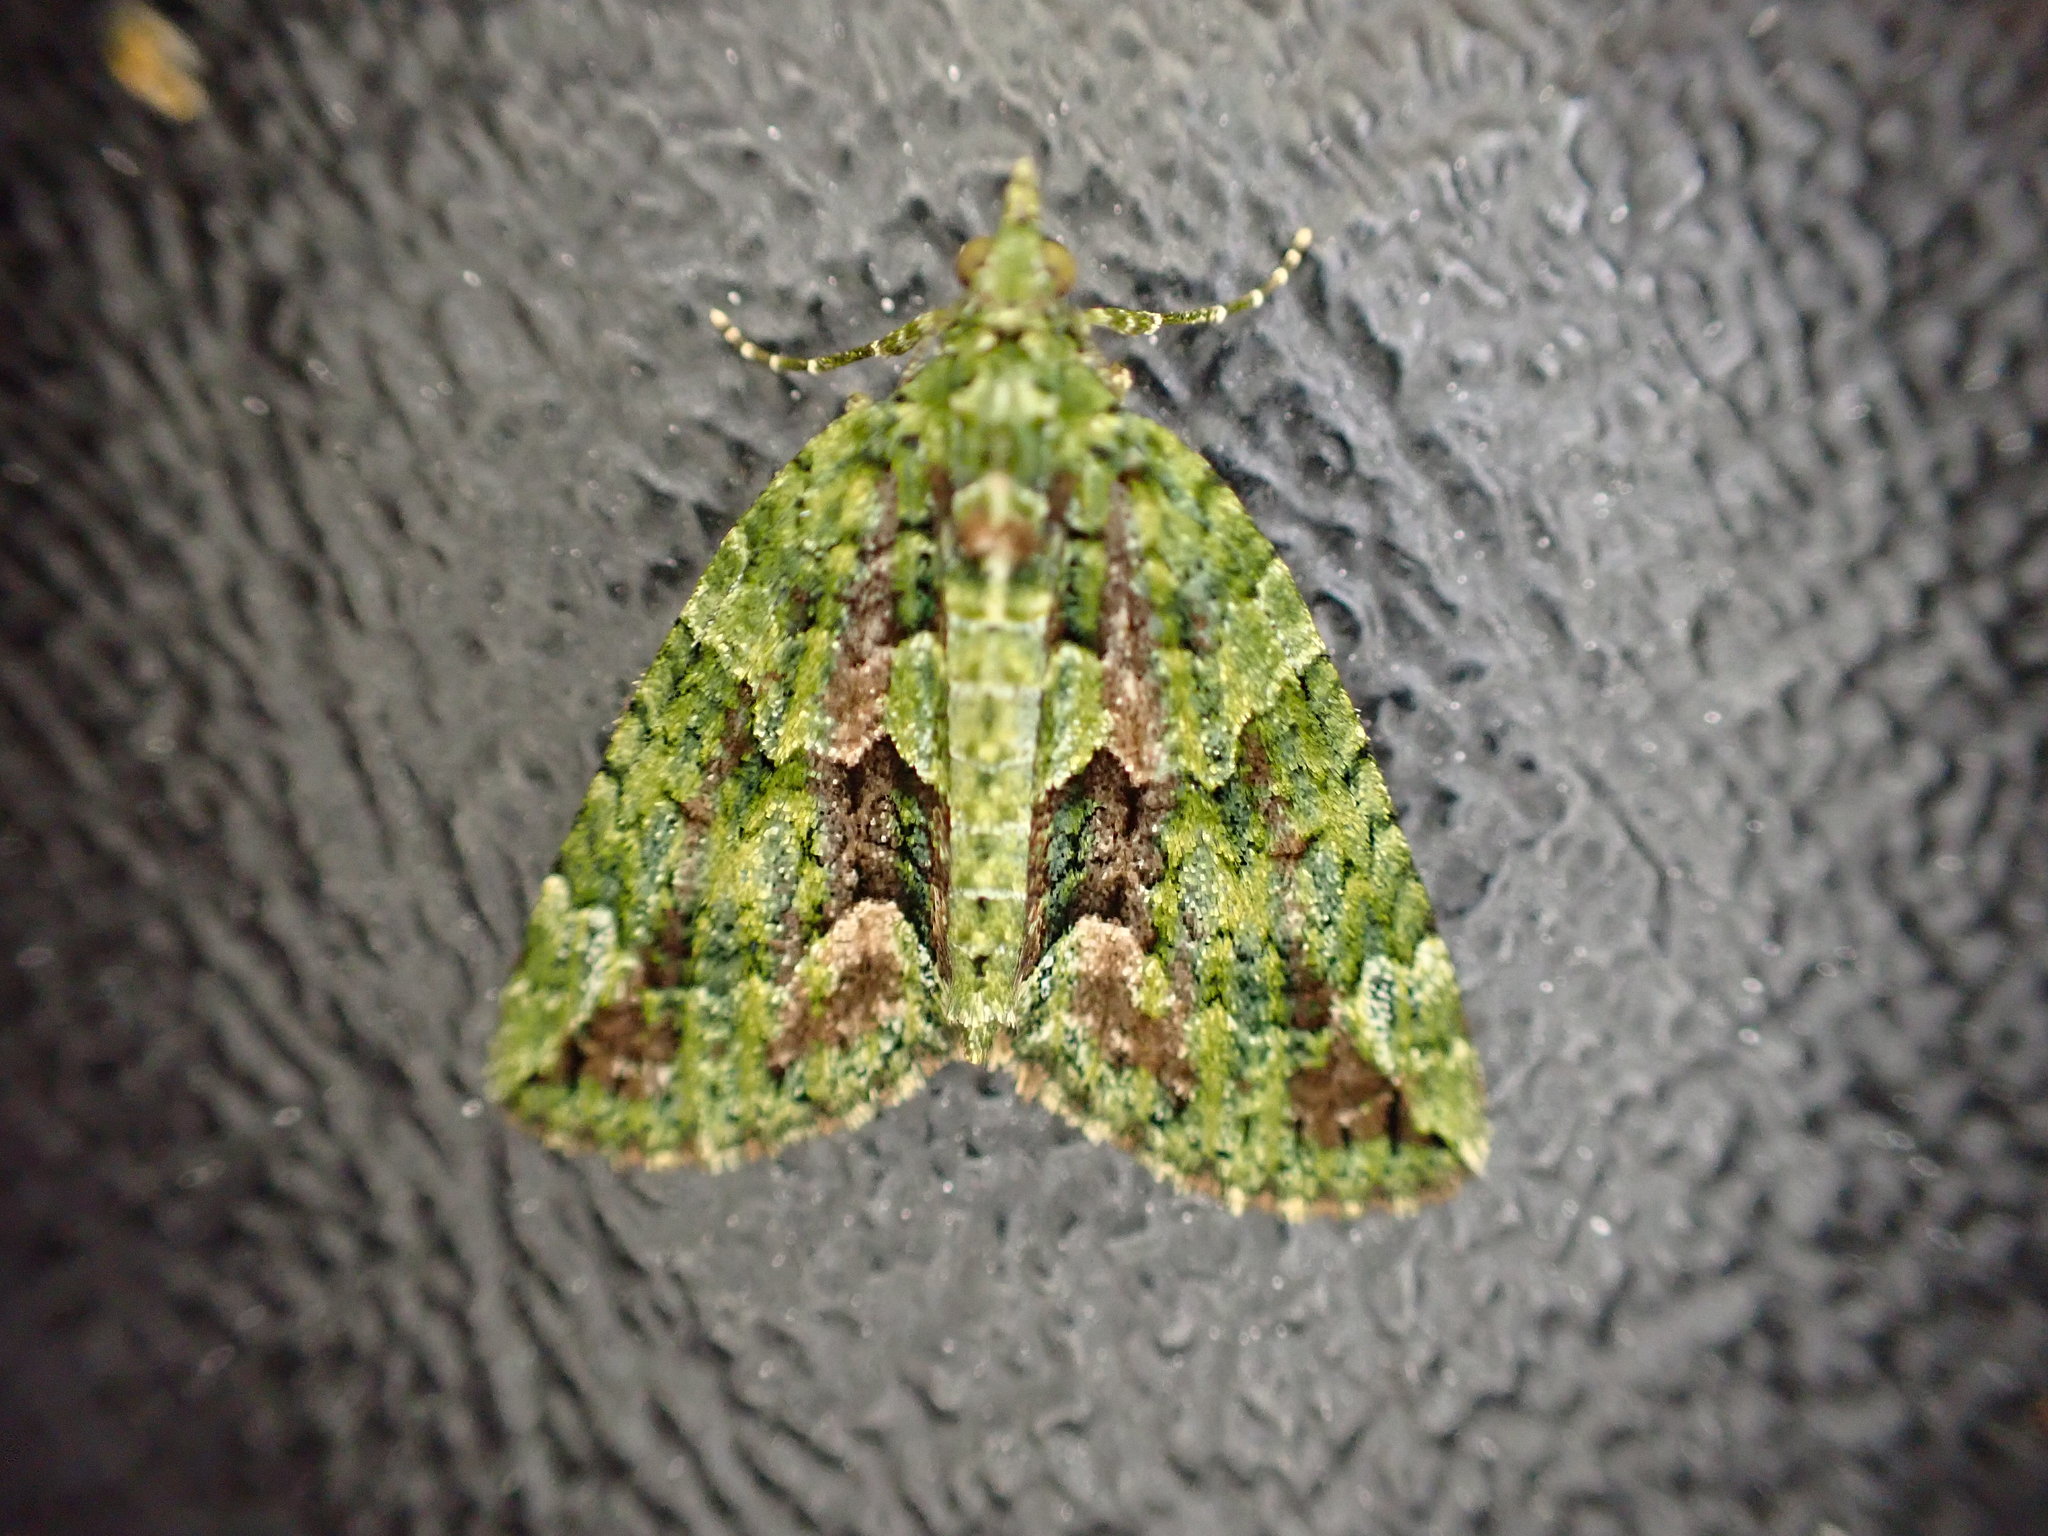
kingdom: Animalia
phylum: Arthropoda
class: Insecta
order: Lepidoptera
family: Geometridae
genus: Chloroclysta
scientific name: Chloroclysta siterata
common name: Red-green carpet
